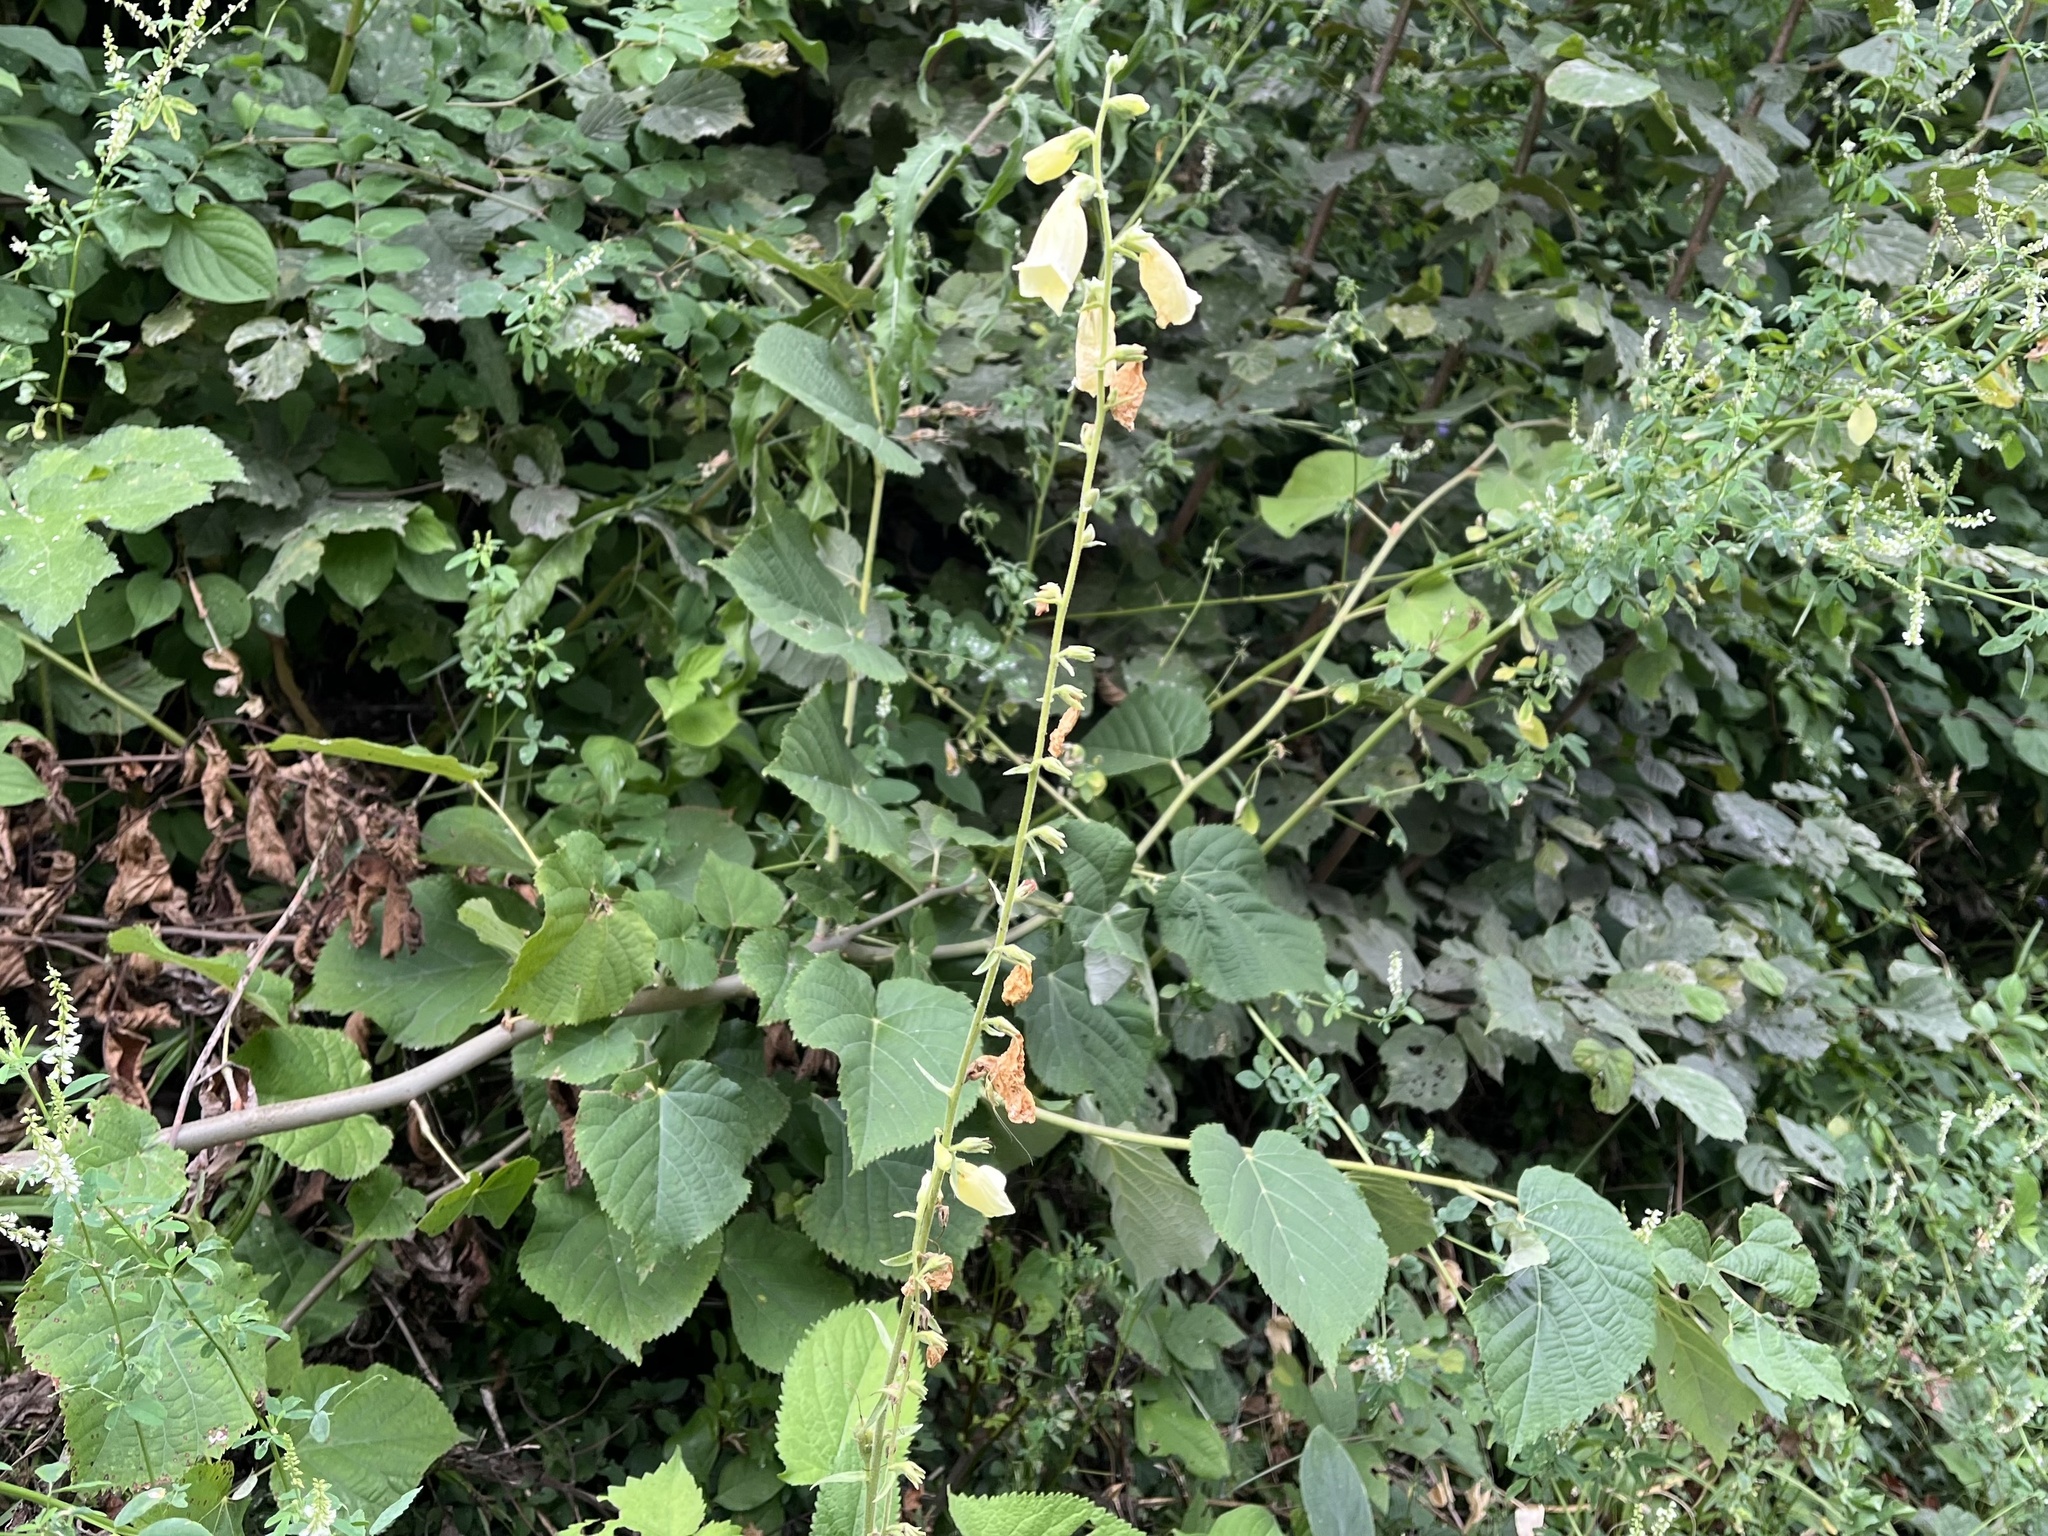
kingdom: Plantae
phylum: Tracheophyta
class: Magnoliopsida
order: Lamiales
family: Plantaginaceae
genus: Digitalis
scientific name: Digitalis grandiflora
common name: Yellow foxglove
